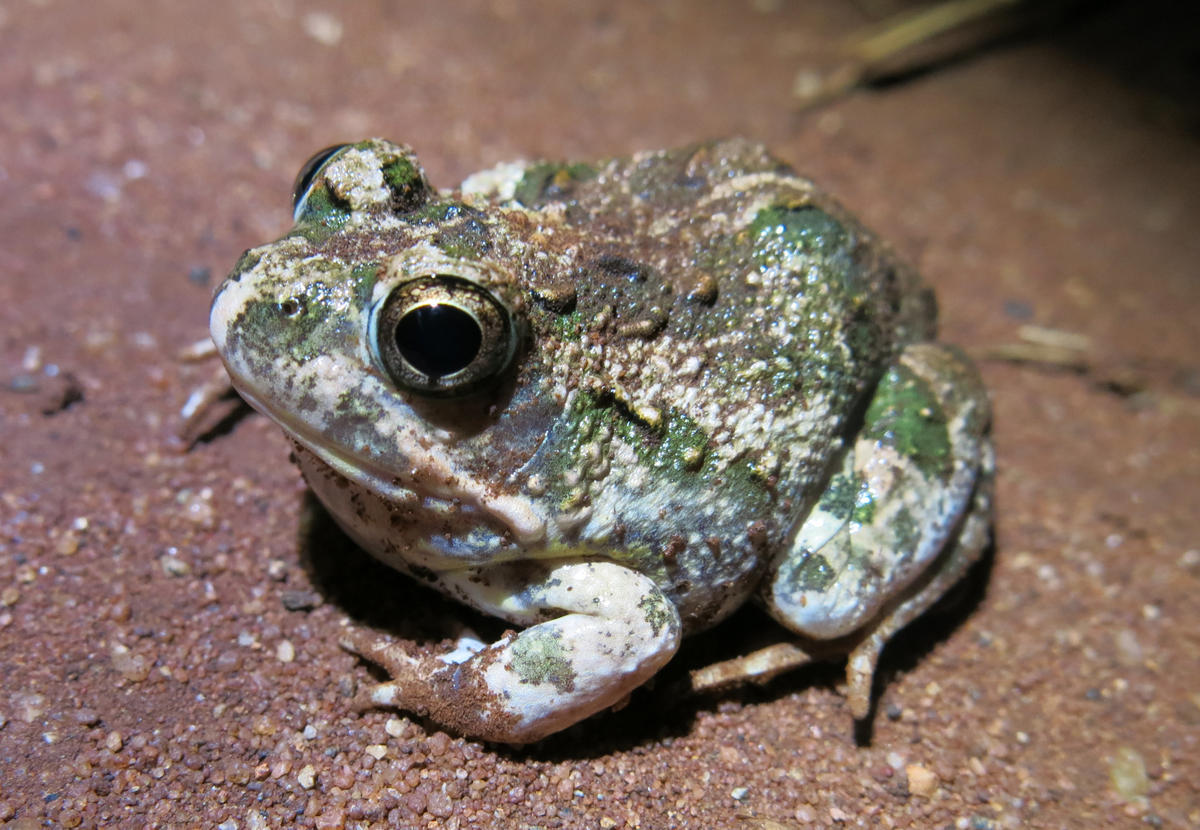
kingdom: Animalia
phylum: Chordata
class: Amphibia
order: Anura
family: Pyxicephalidae
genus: Tomopterna
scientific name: Tomopterna
